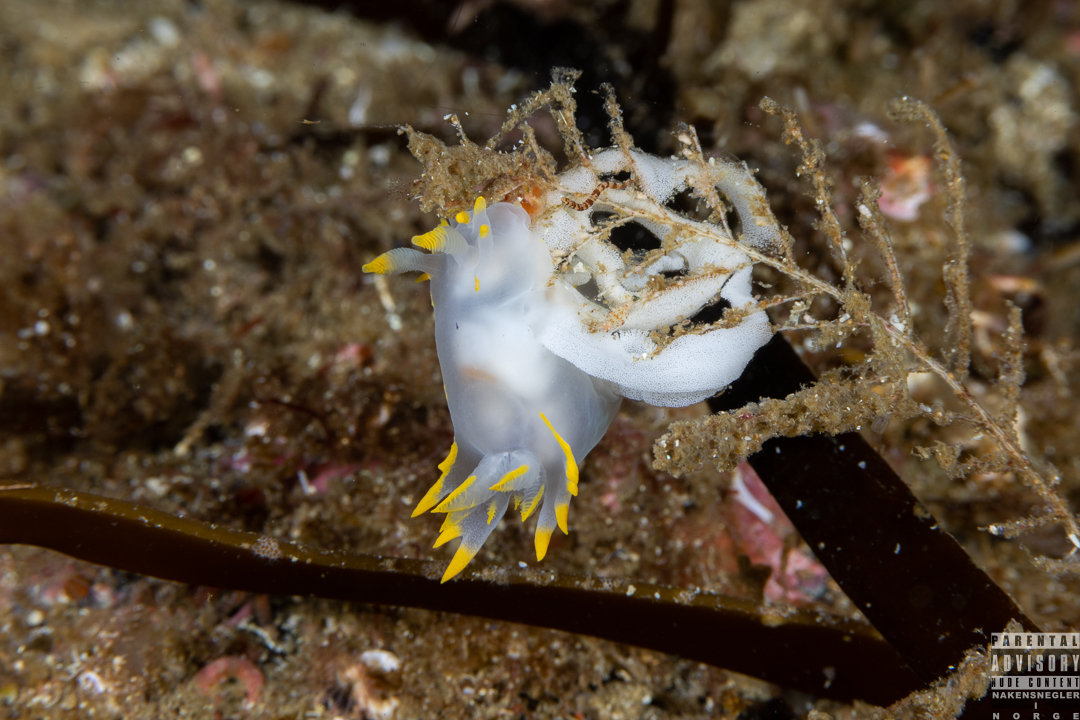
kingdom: Animalia
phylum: Mollusca
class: Gastropoda
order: Nudibranchia
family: Polyceridae
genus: Polycera
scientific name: Polycera faeroensis
